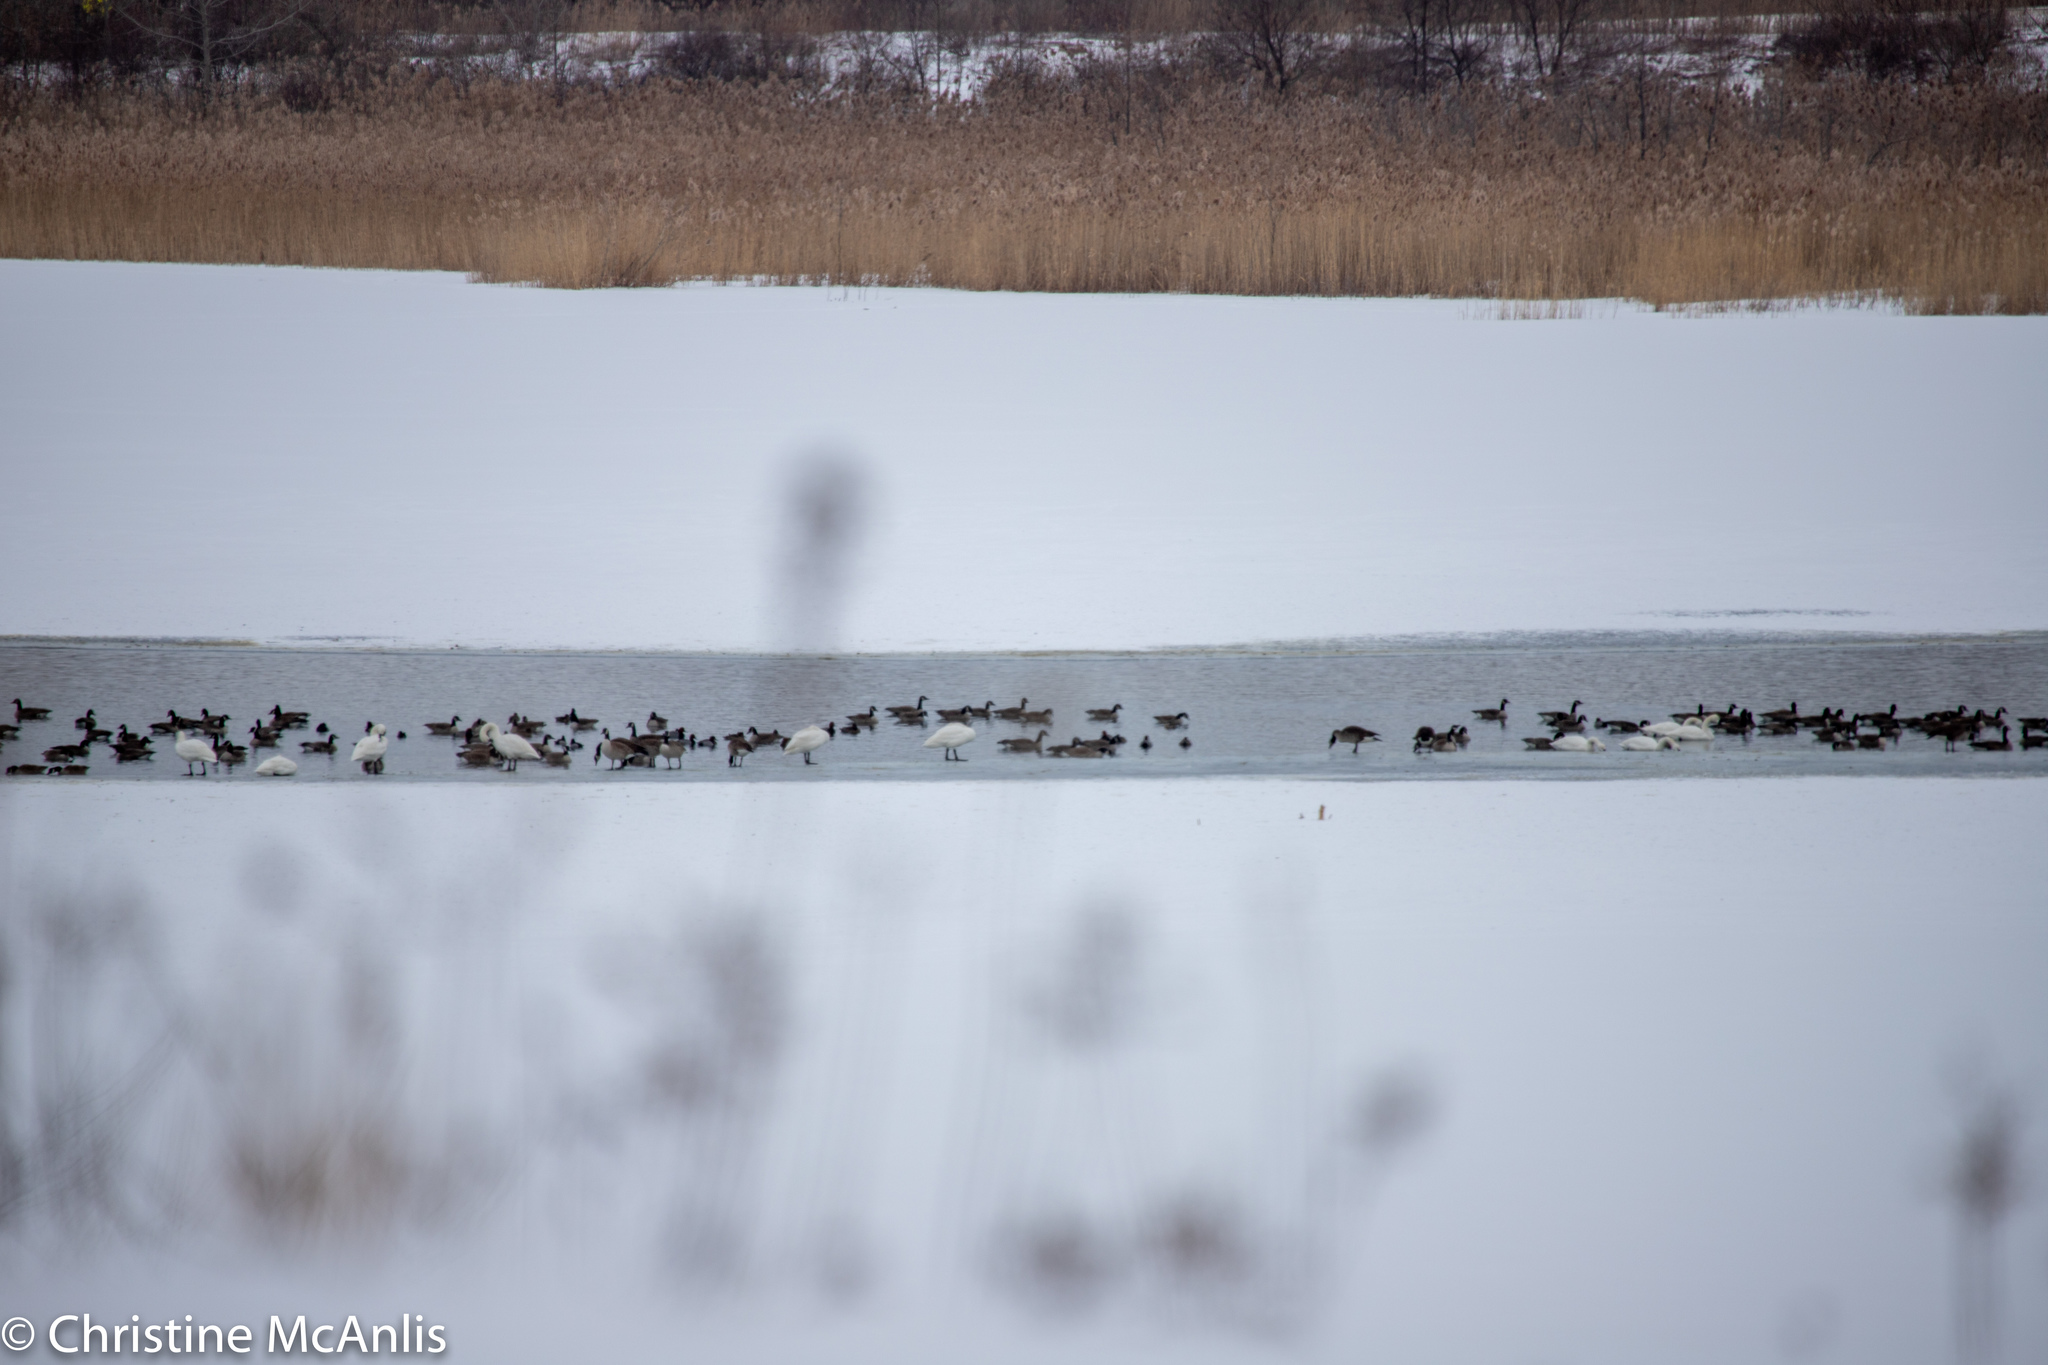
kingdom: Animalia
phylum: Chordata
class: Aves
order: Anseriformes
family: Anatidae
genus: Branta
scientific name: Branta canadensis
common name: Canada goose
